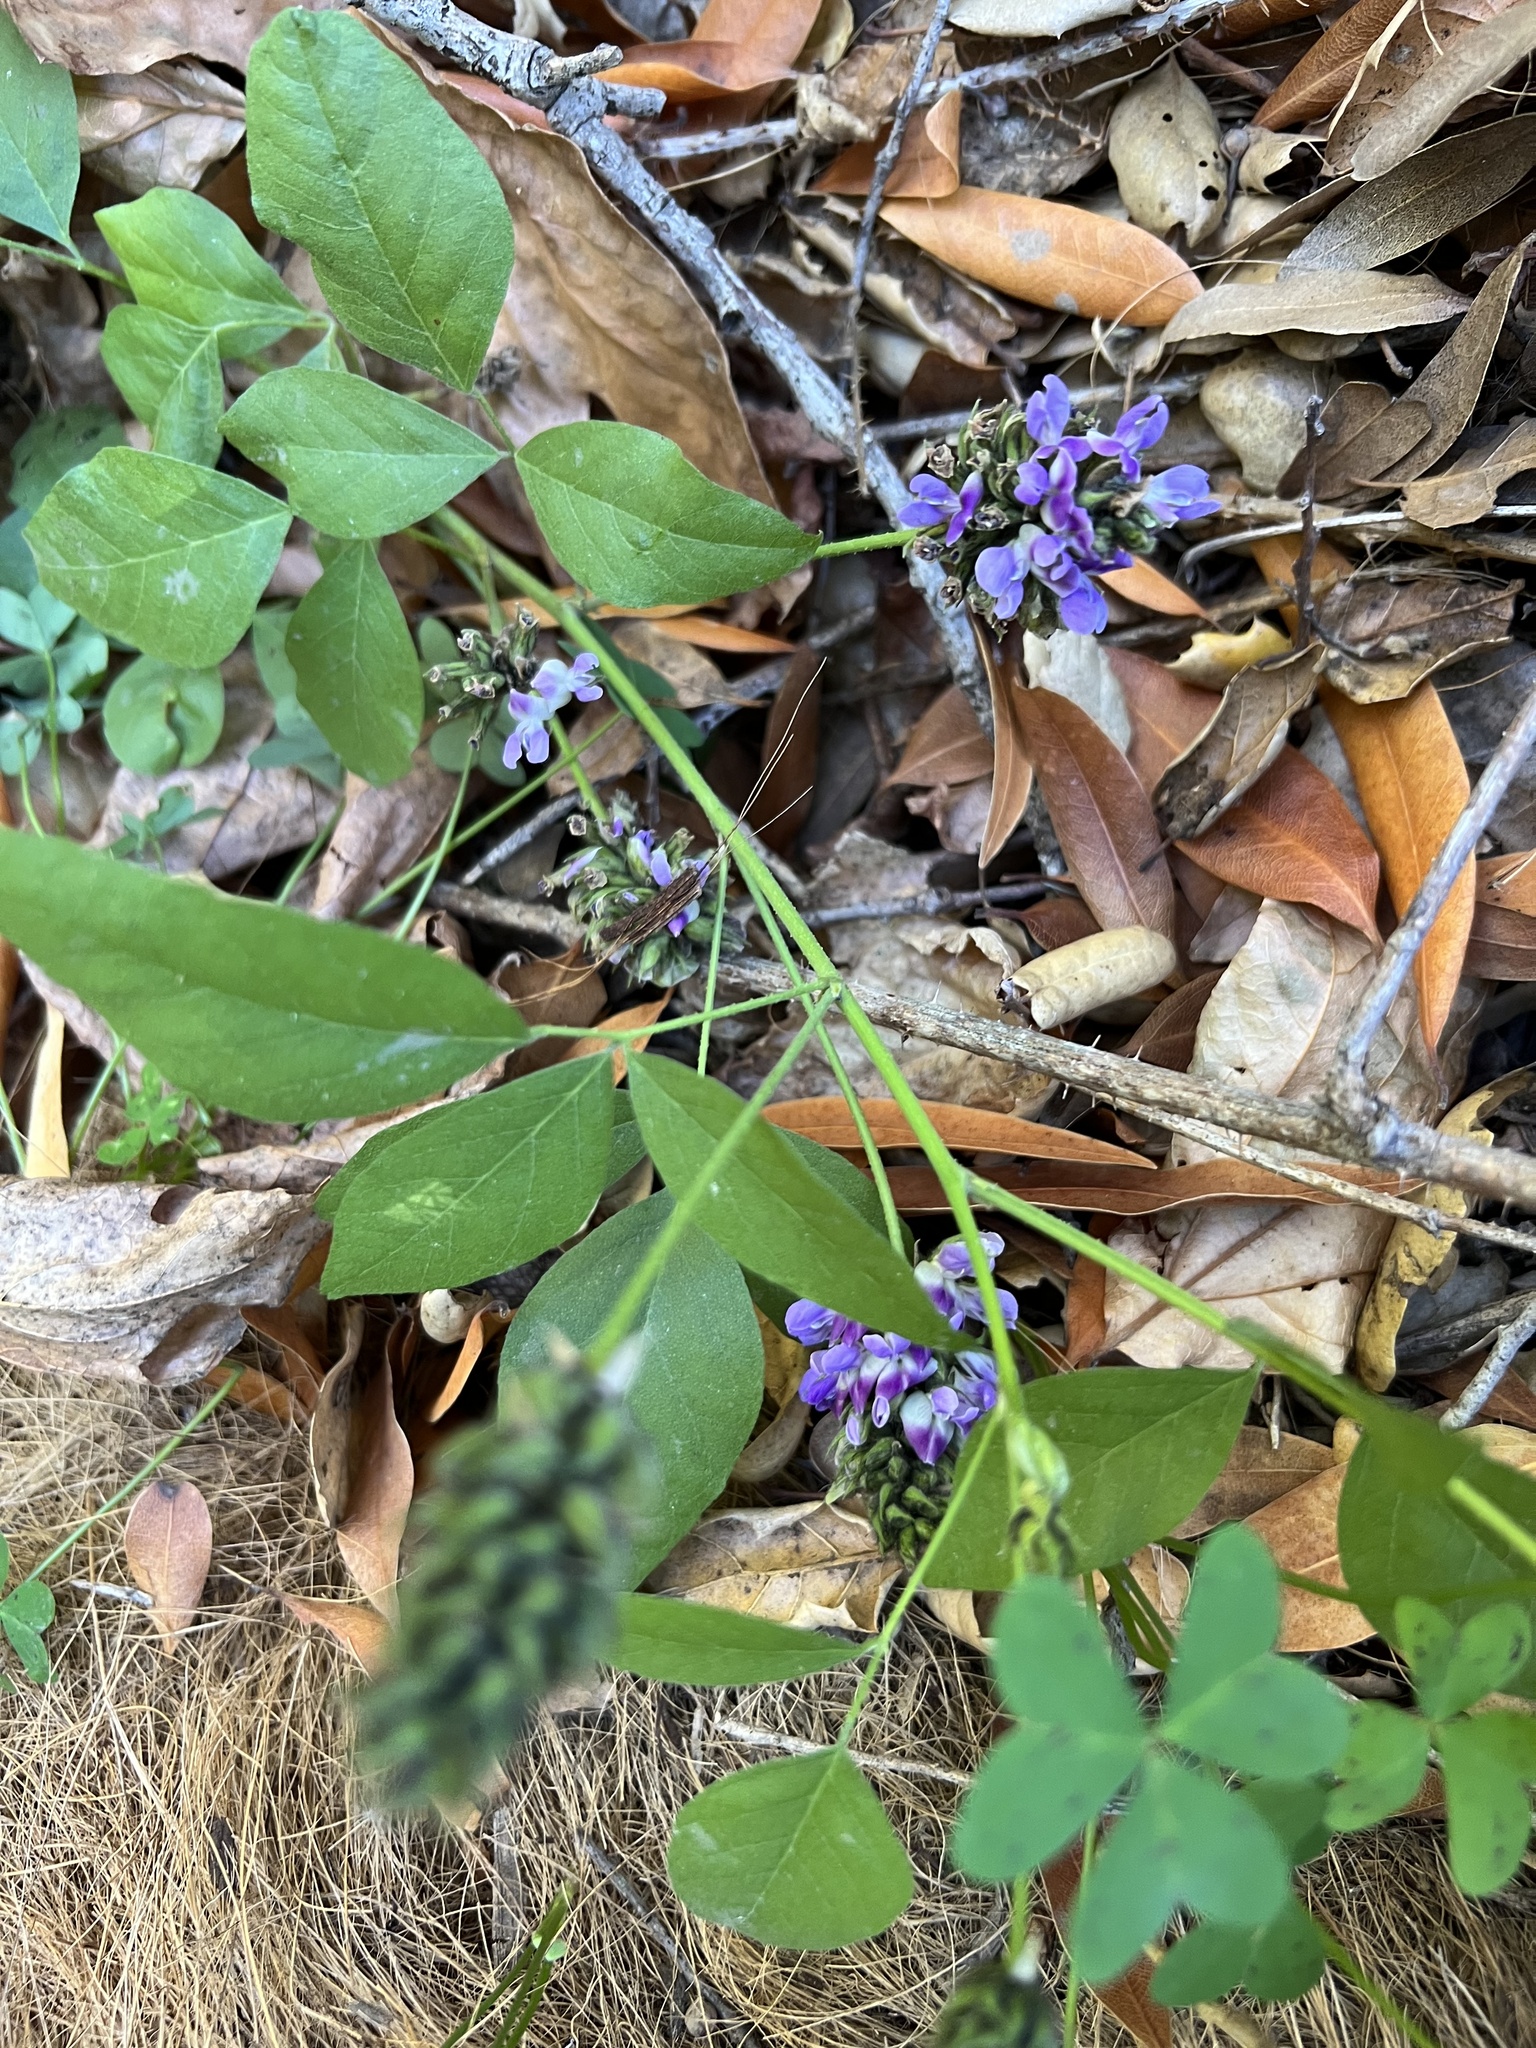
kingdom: Plantae
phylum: Tracheophyta
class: Magnoliopsida
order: Fabales
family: Fabaceae
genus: Hoita
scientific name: Hoita macrostachya
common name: Leatherroot
